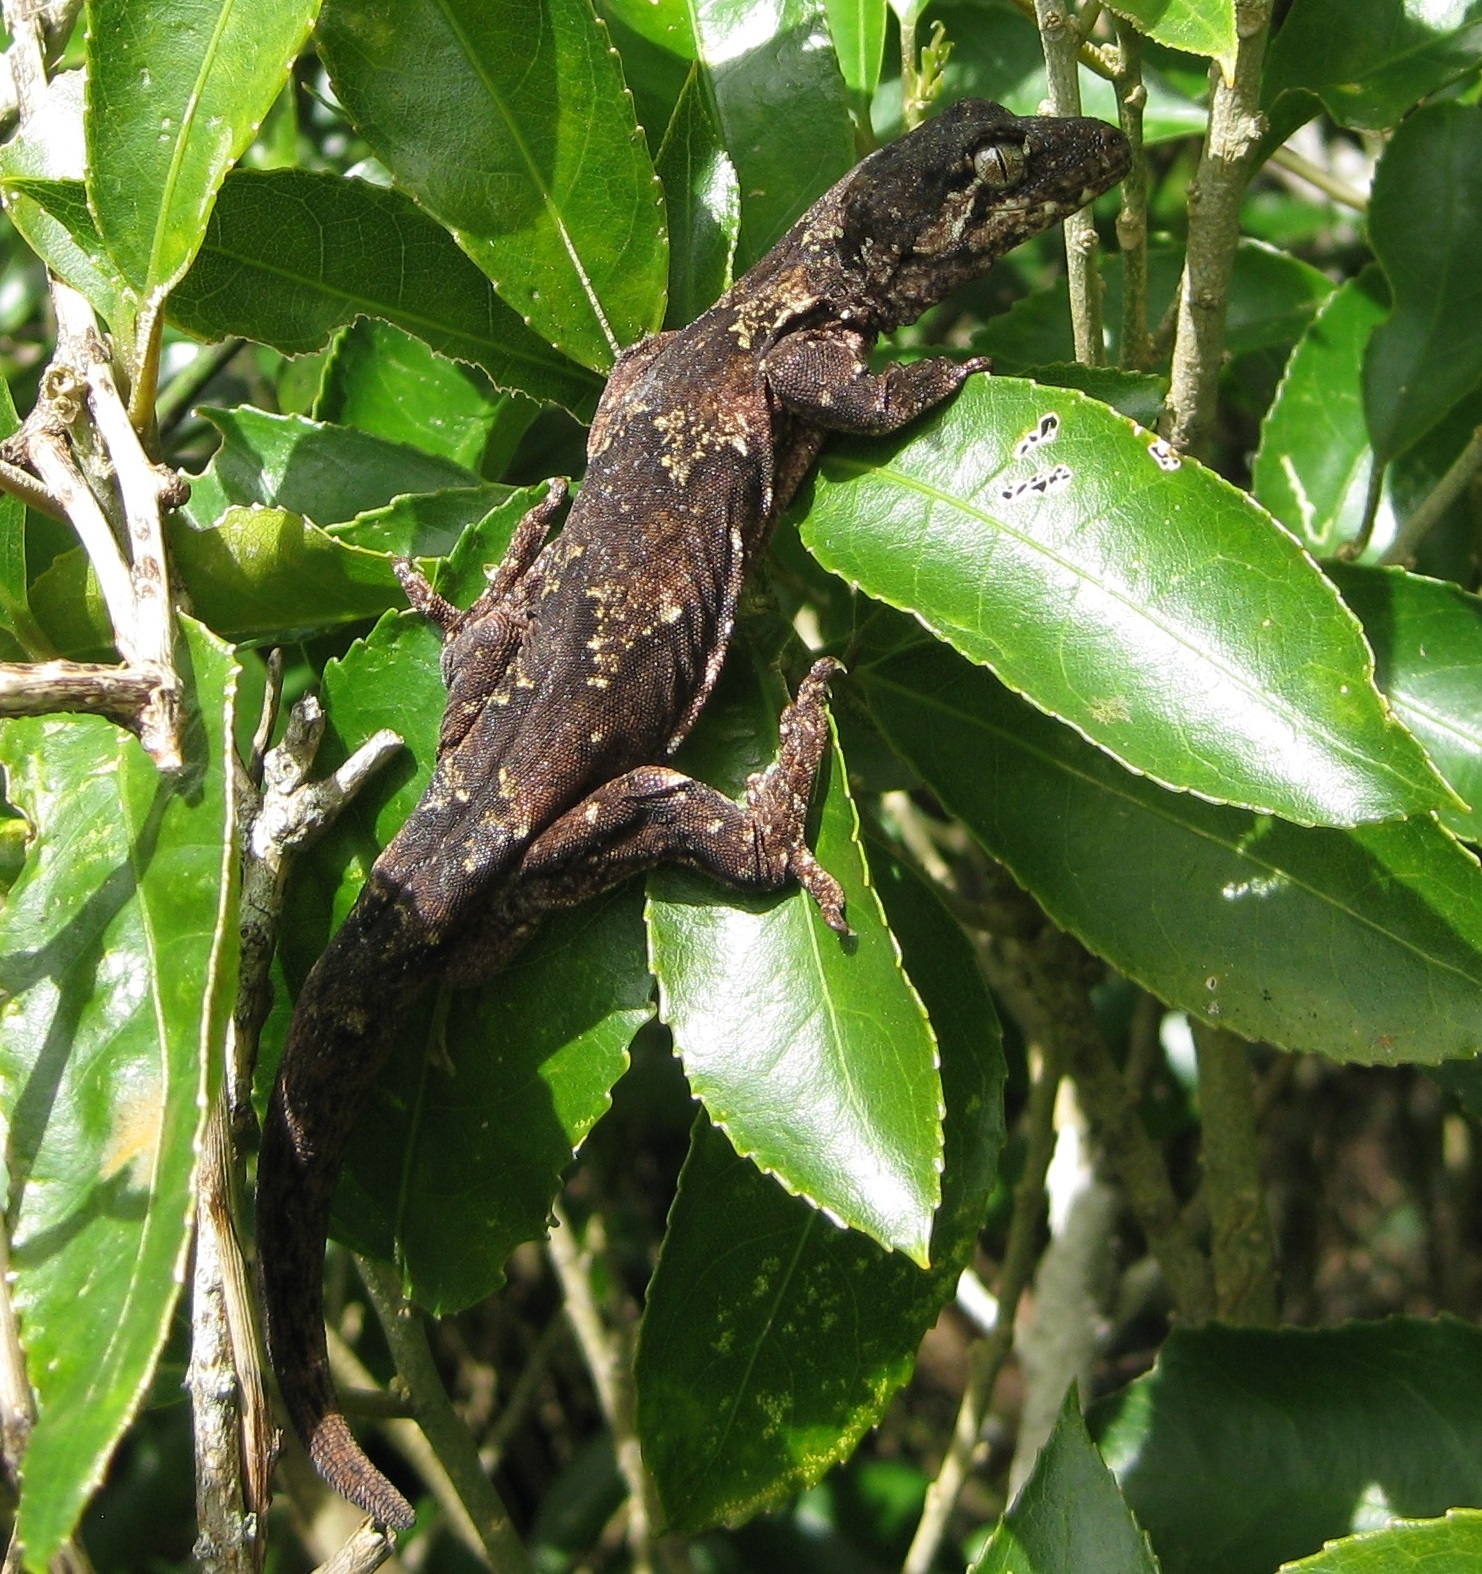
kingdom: Animalia
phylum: Chordata
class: Squamata
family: Diplodactylidae
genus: Mokopirirakau
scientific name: Mokopirirakau
